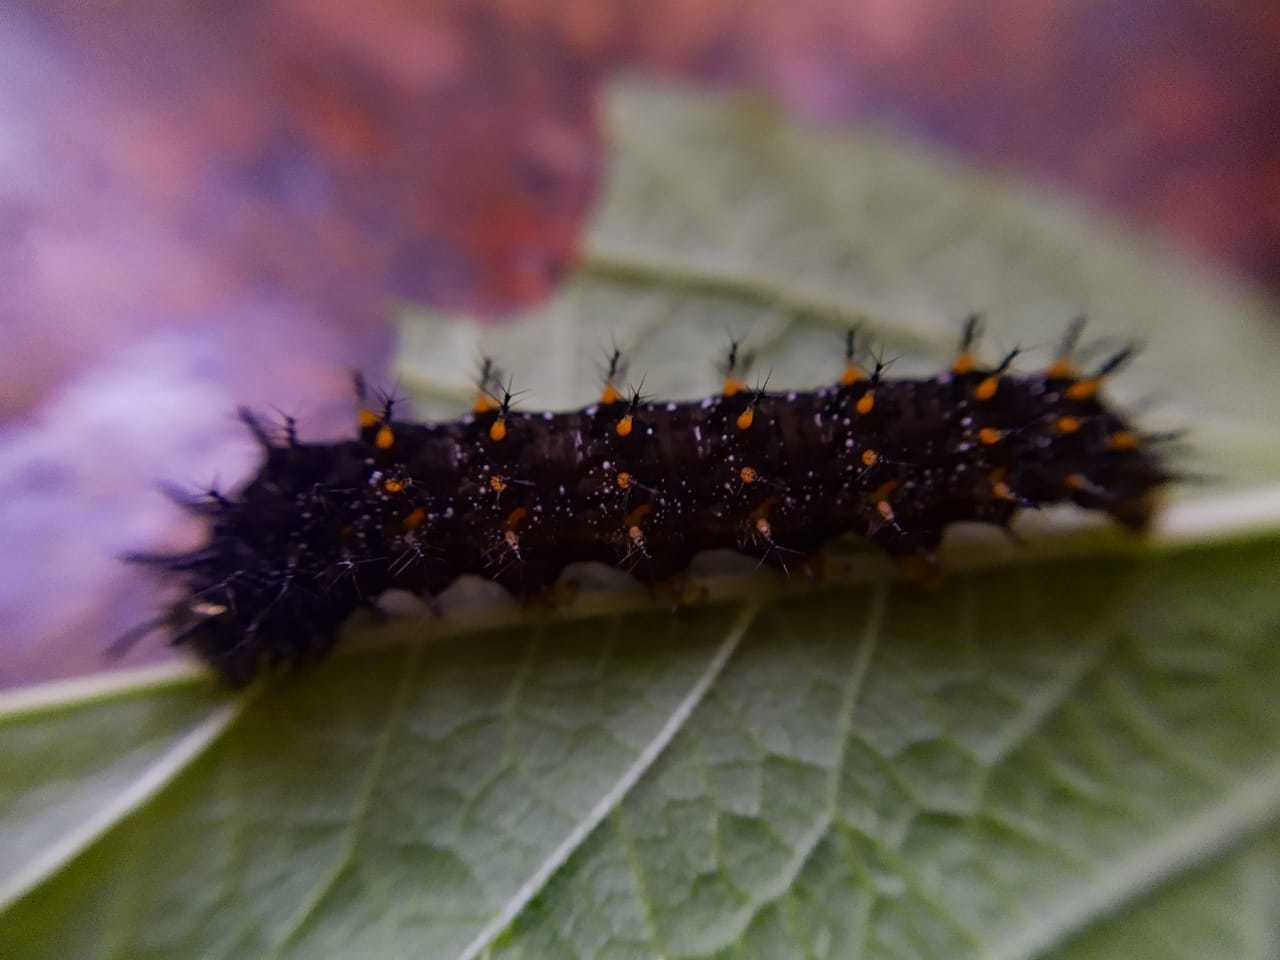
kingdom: Animalia
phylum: Arthropoda
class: Insecta
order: Lepidoptera
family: Nymphalidae
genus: Anartia
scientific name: Anartia jatrophae
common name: White peacock
